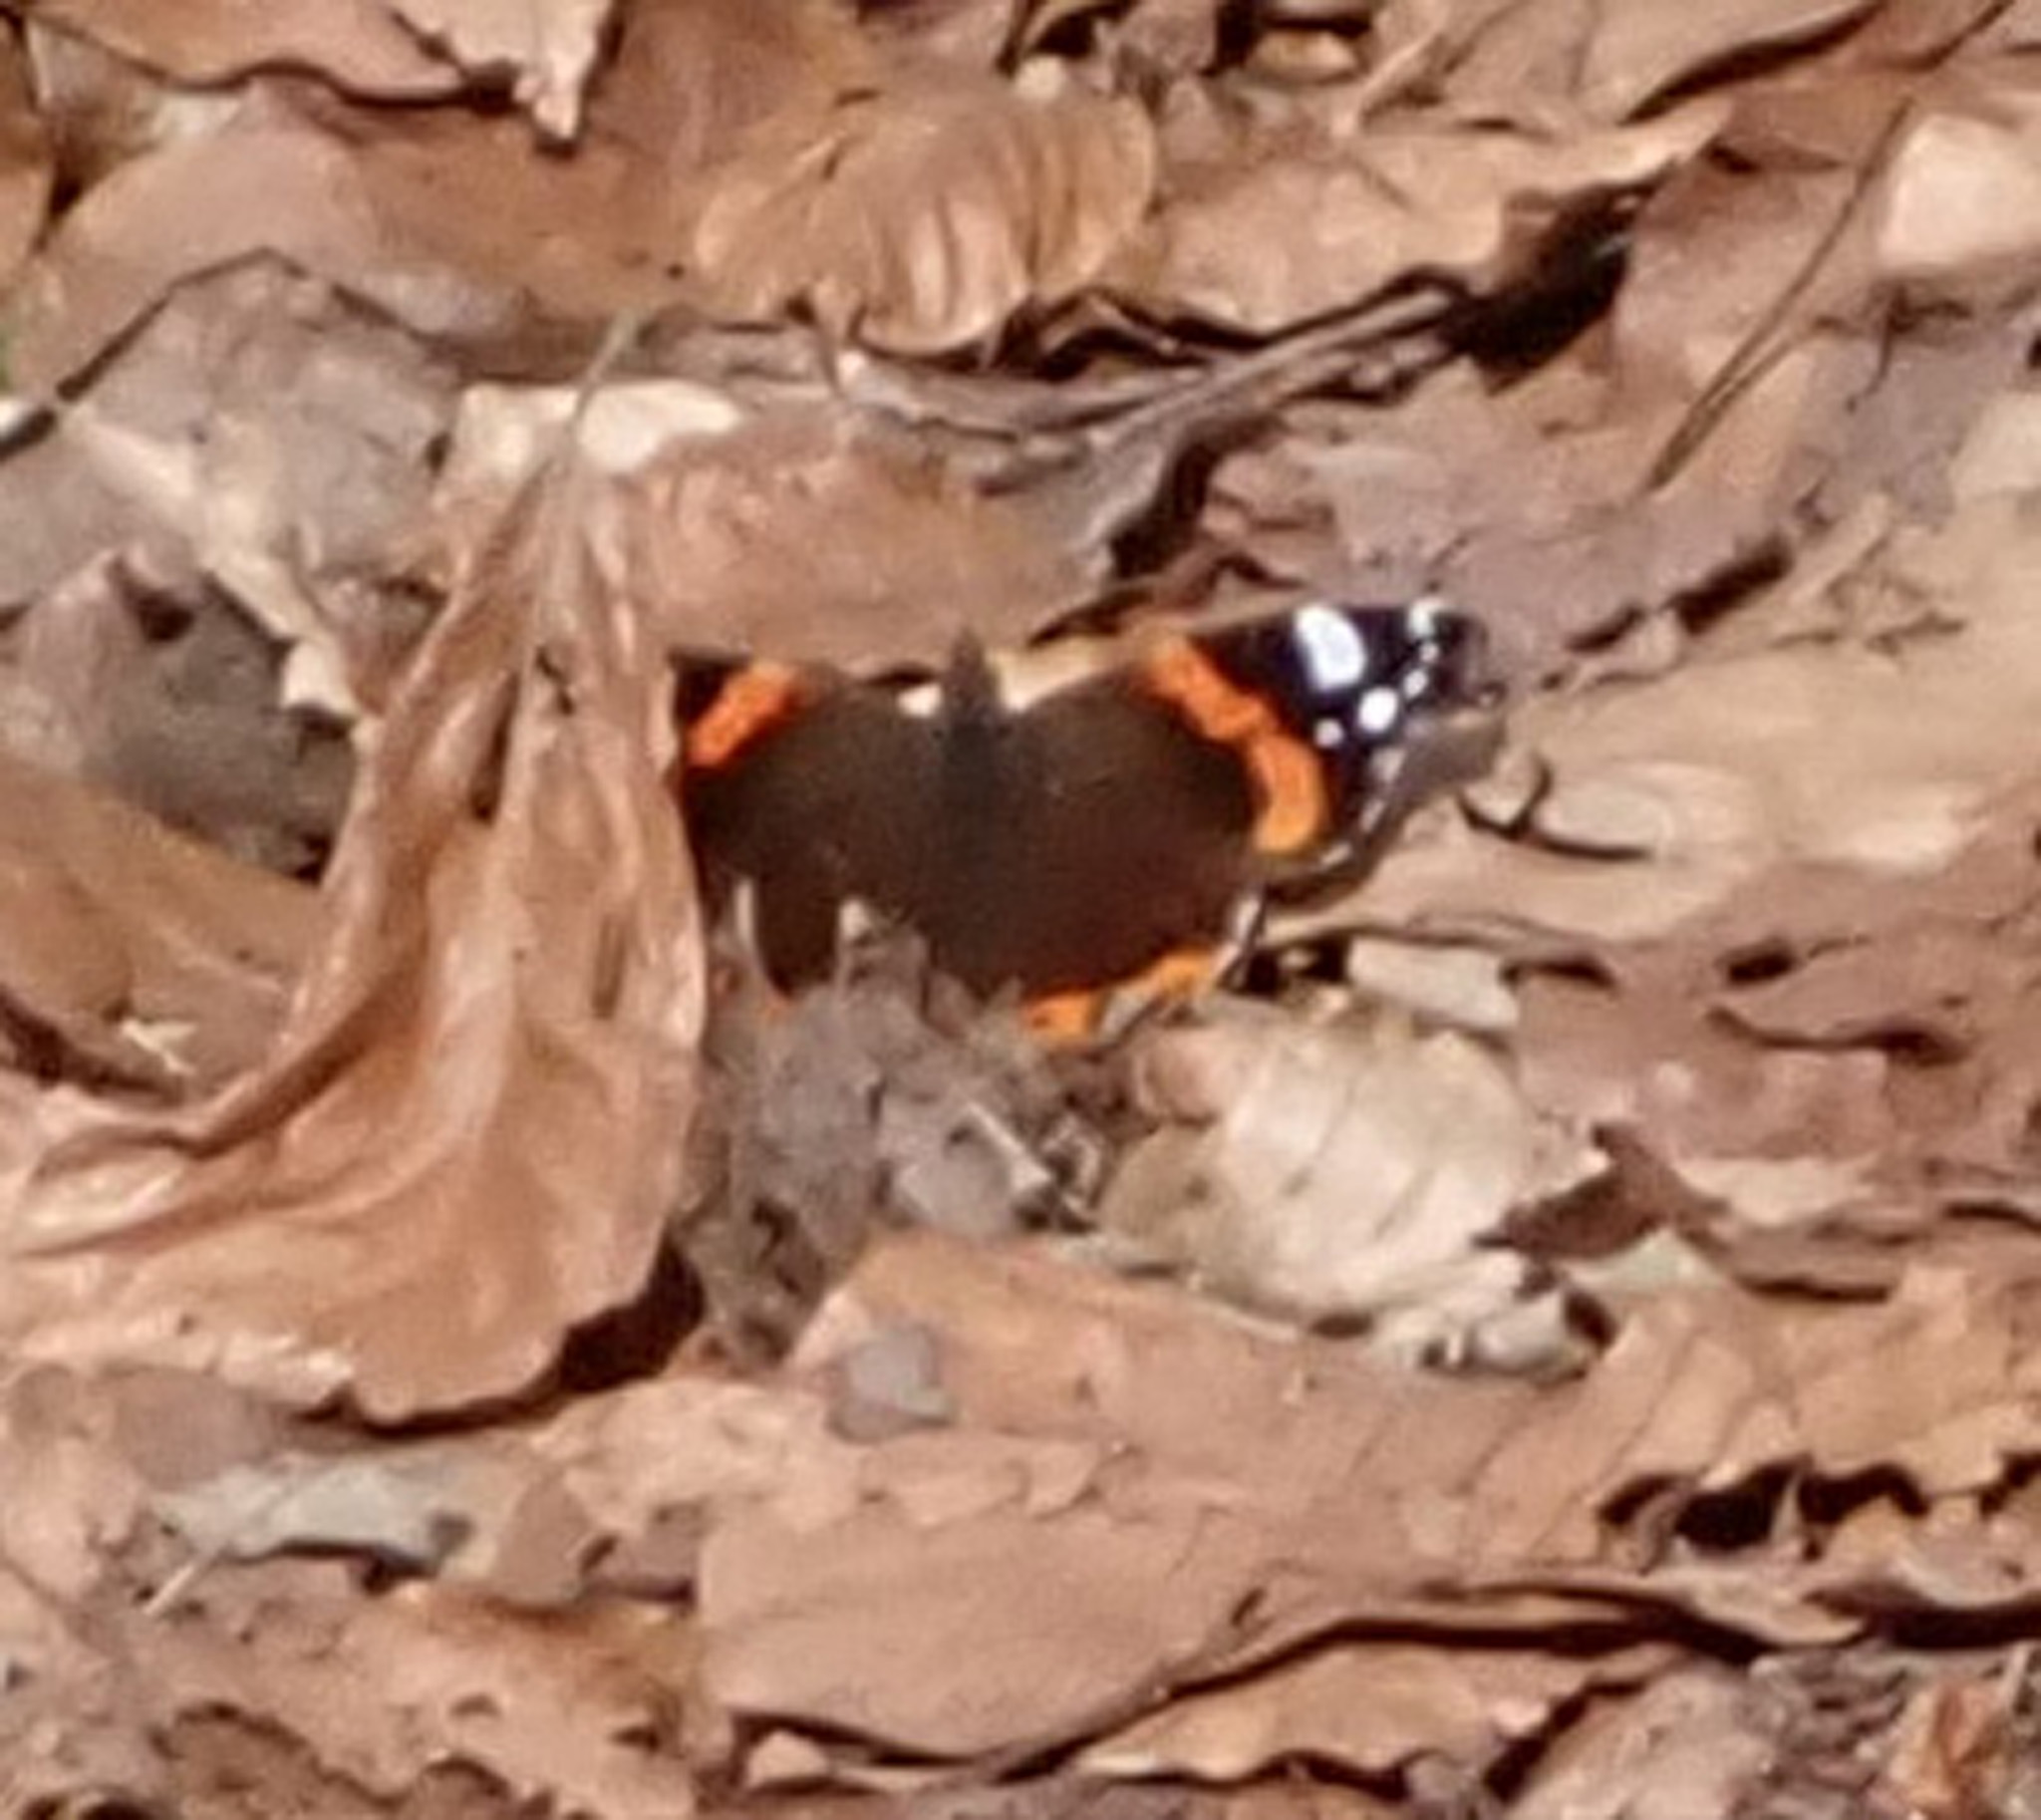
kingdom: Animalia
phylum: Arthropoda
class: Insecta
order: Lepidoptera
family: Nymphalidae
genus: Vanessa
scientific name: Vanessa atalanta
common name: Red admiral
